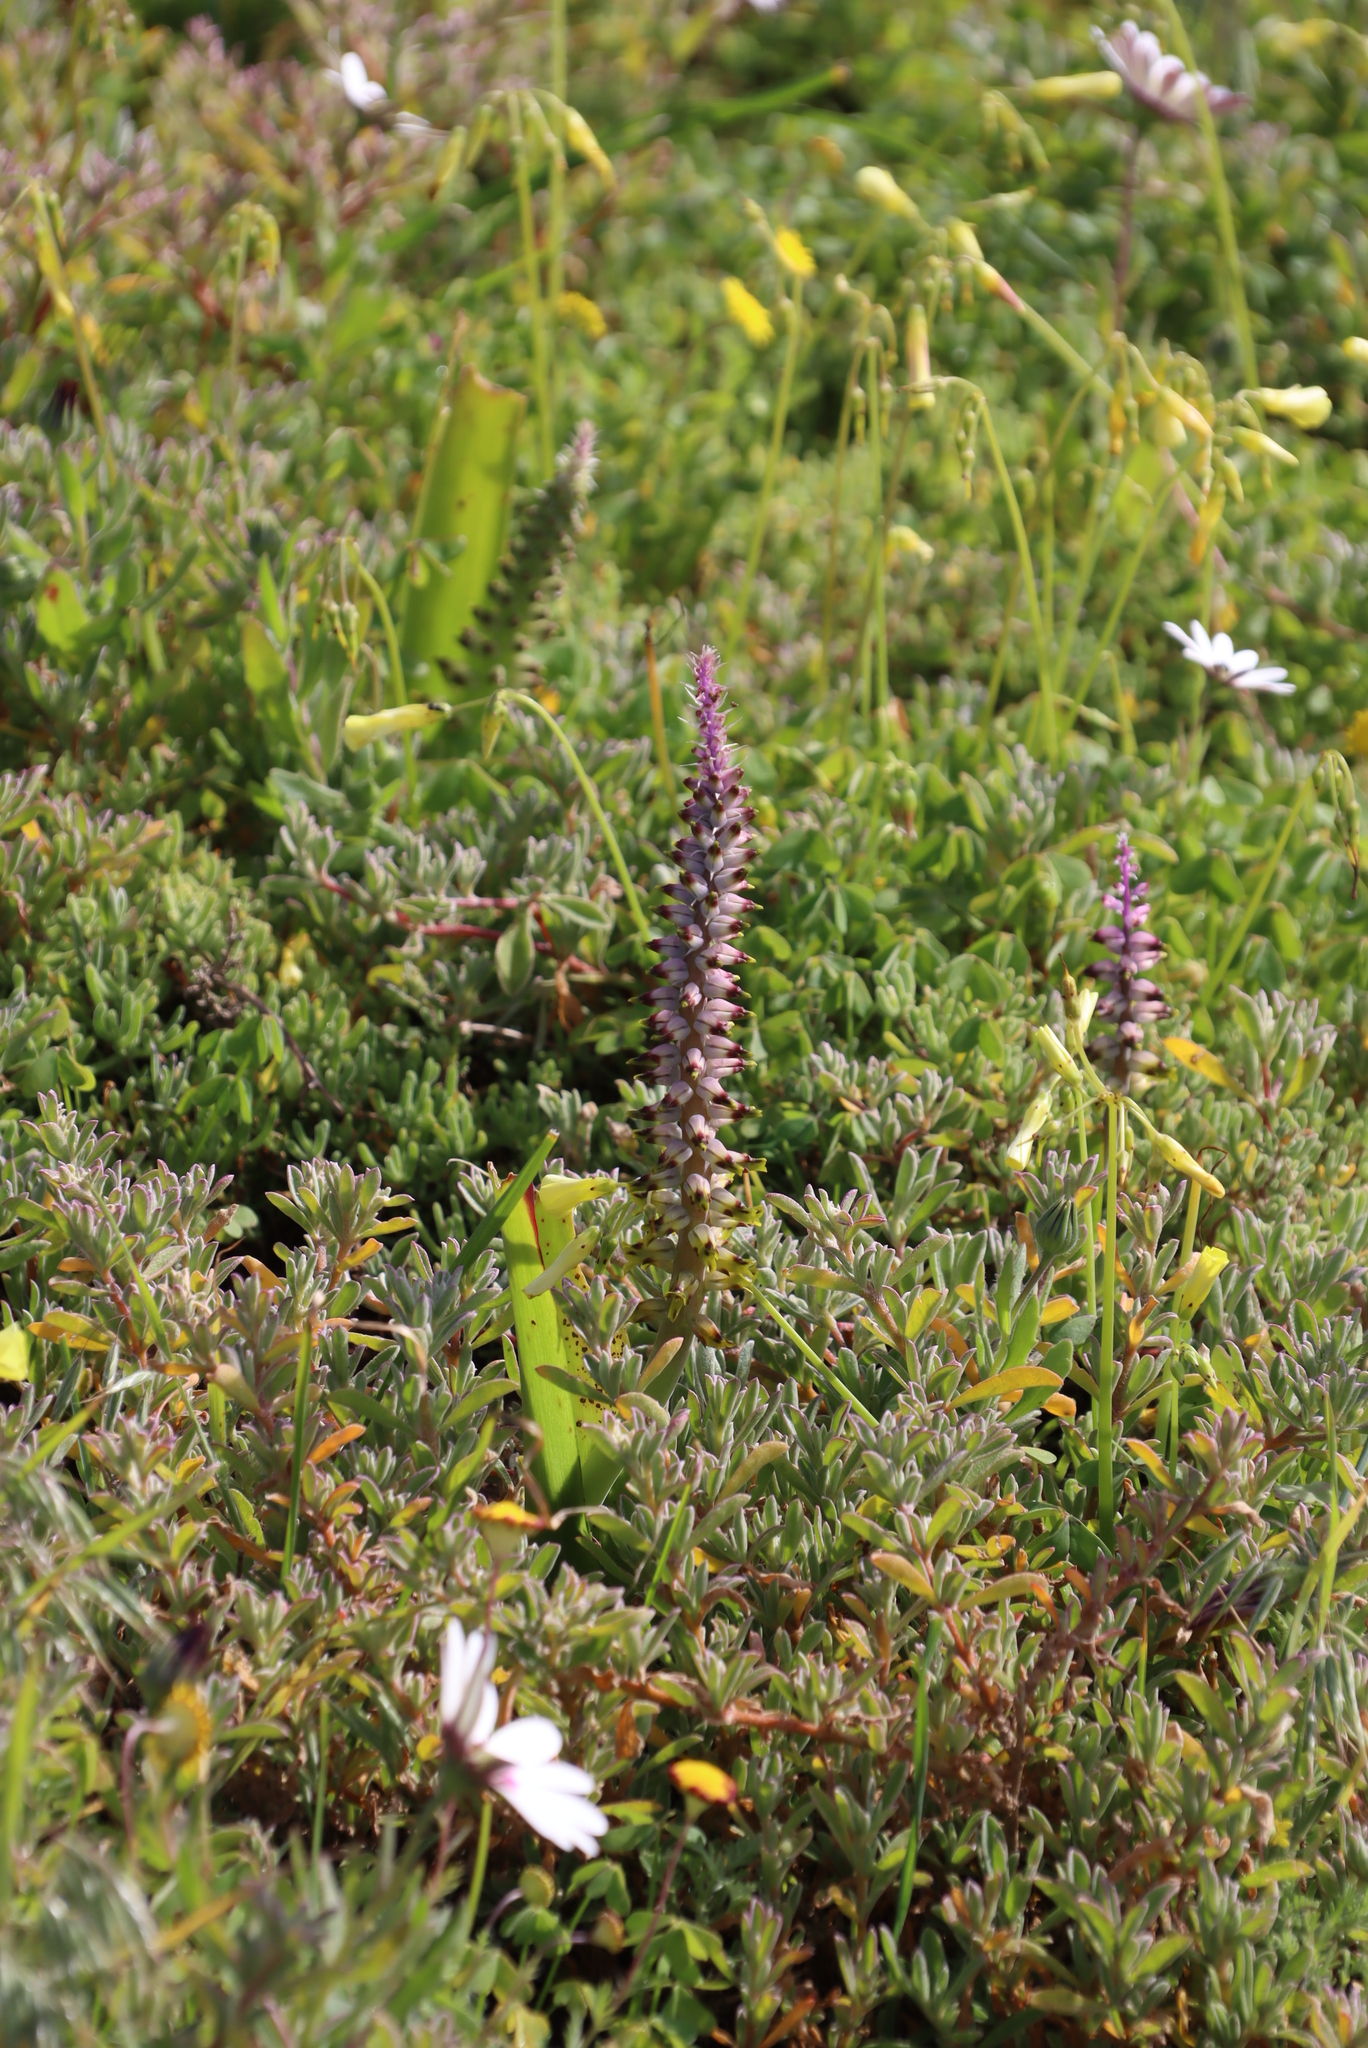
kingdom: Plantae
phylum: Tracheophyta
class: Liliopsida
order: Asparagales
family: Asparagaceae
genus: Lachenalia
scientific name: Lachenalia mutabilis
